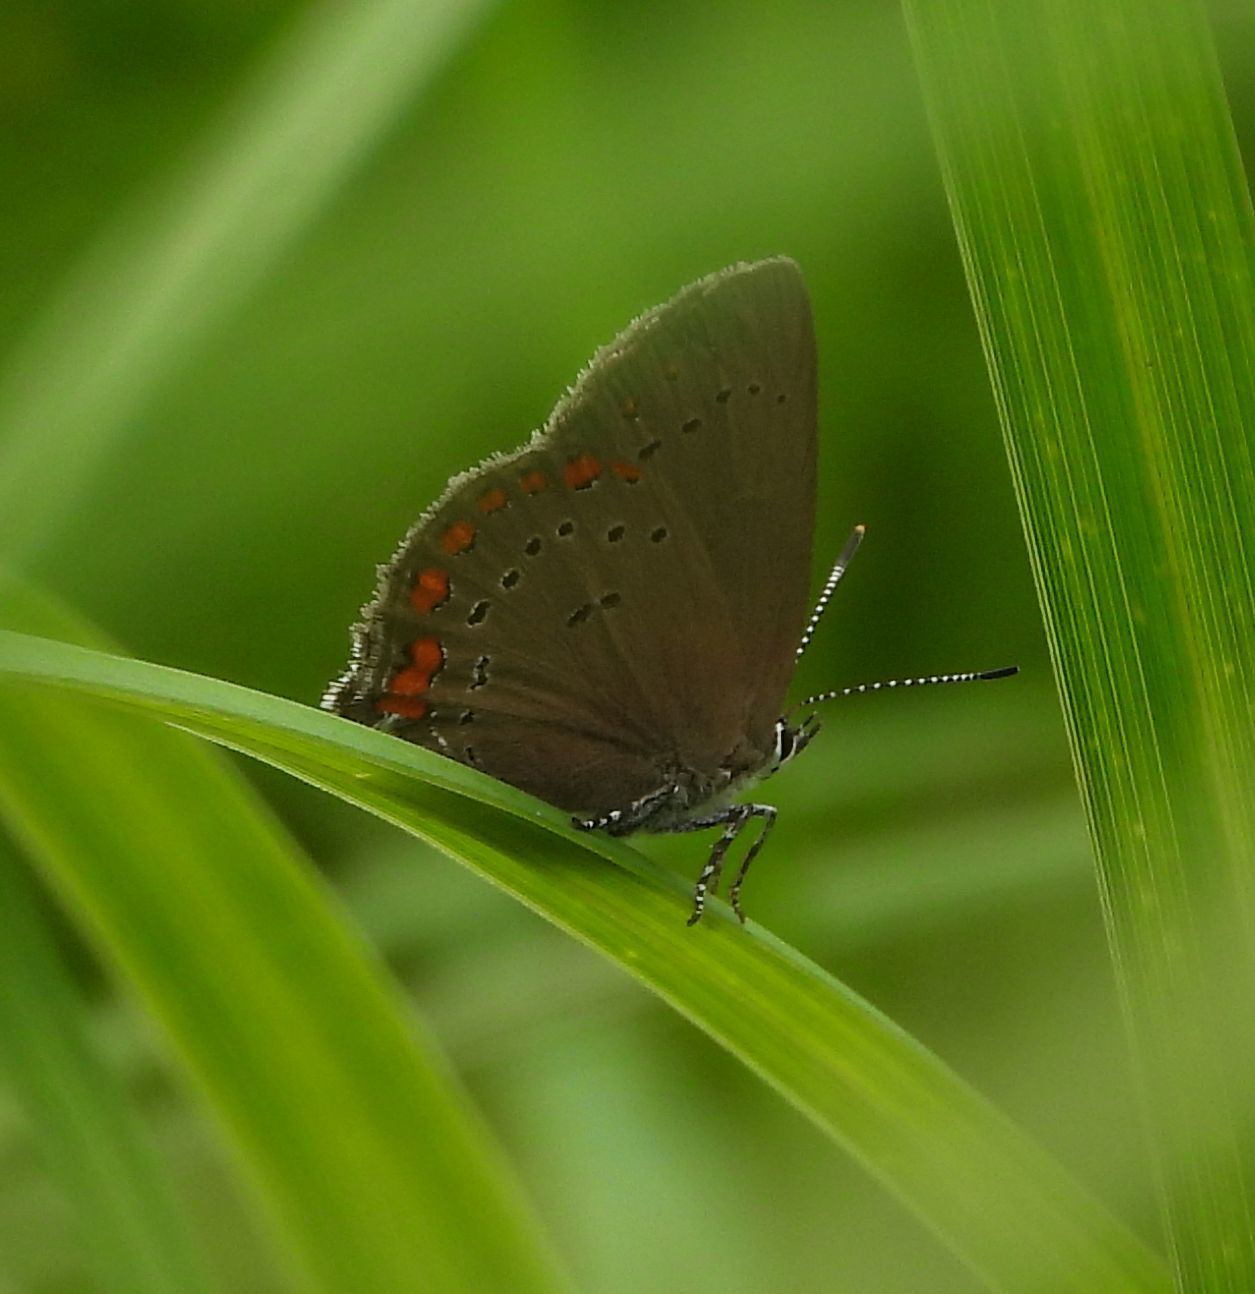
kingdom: Animalia
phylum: Arthropoda
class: Insecta
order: Lepidoptera
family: Lycaenidae
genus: Harkenclenus
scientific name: Harkenclenus titus
